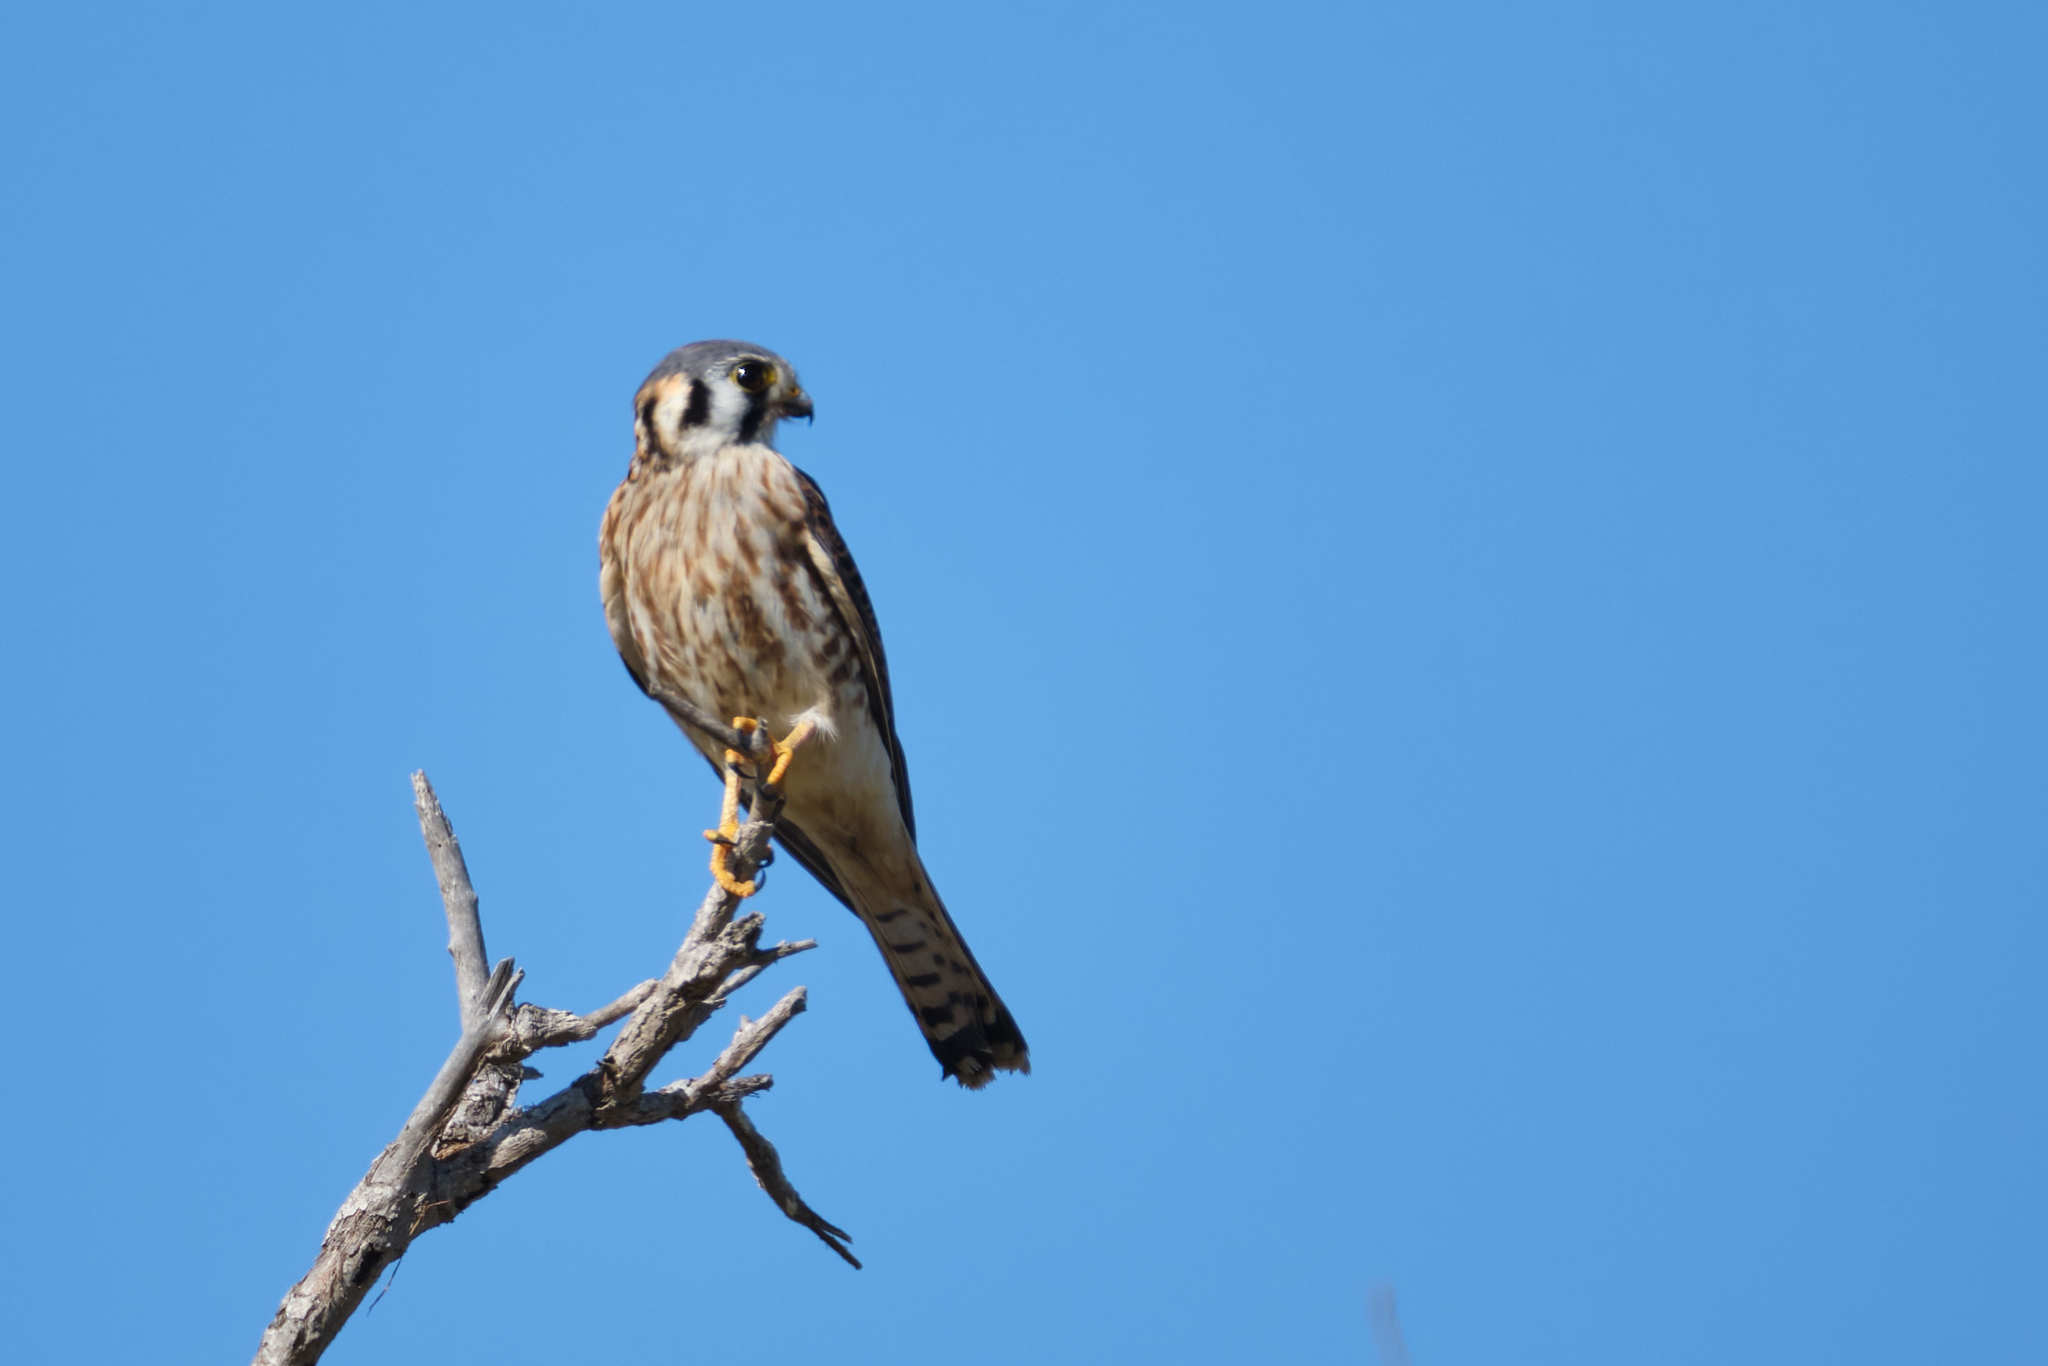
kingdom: Animalia
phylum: Chordata
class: Aves
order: Falconiformes
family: Falconidae
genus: Falco
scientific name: Falco sparverius
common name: American kestrel
